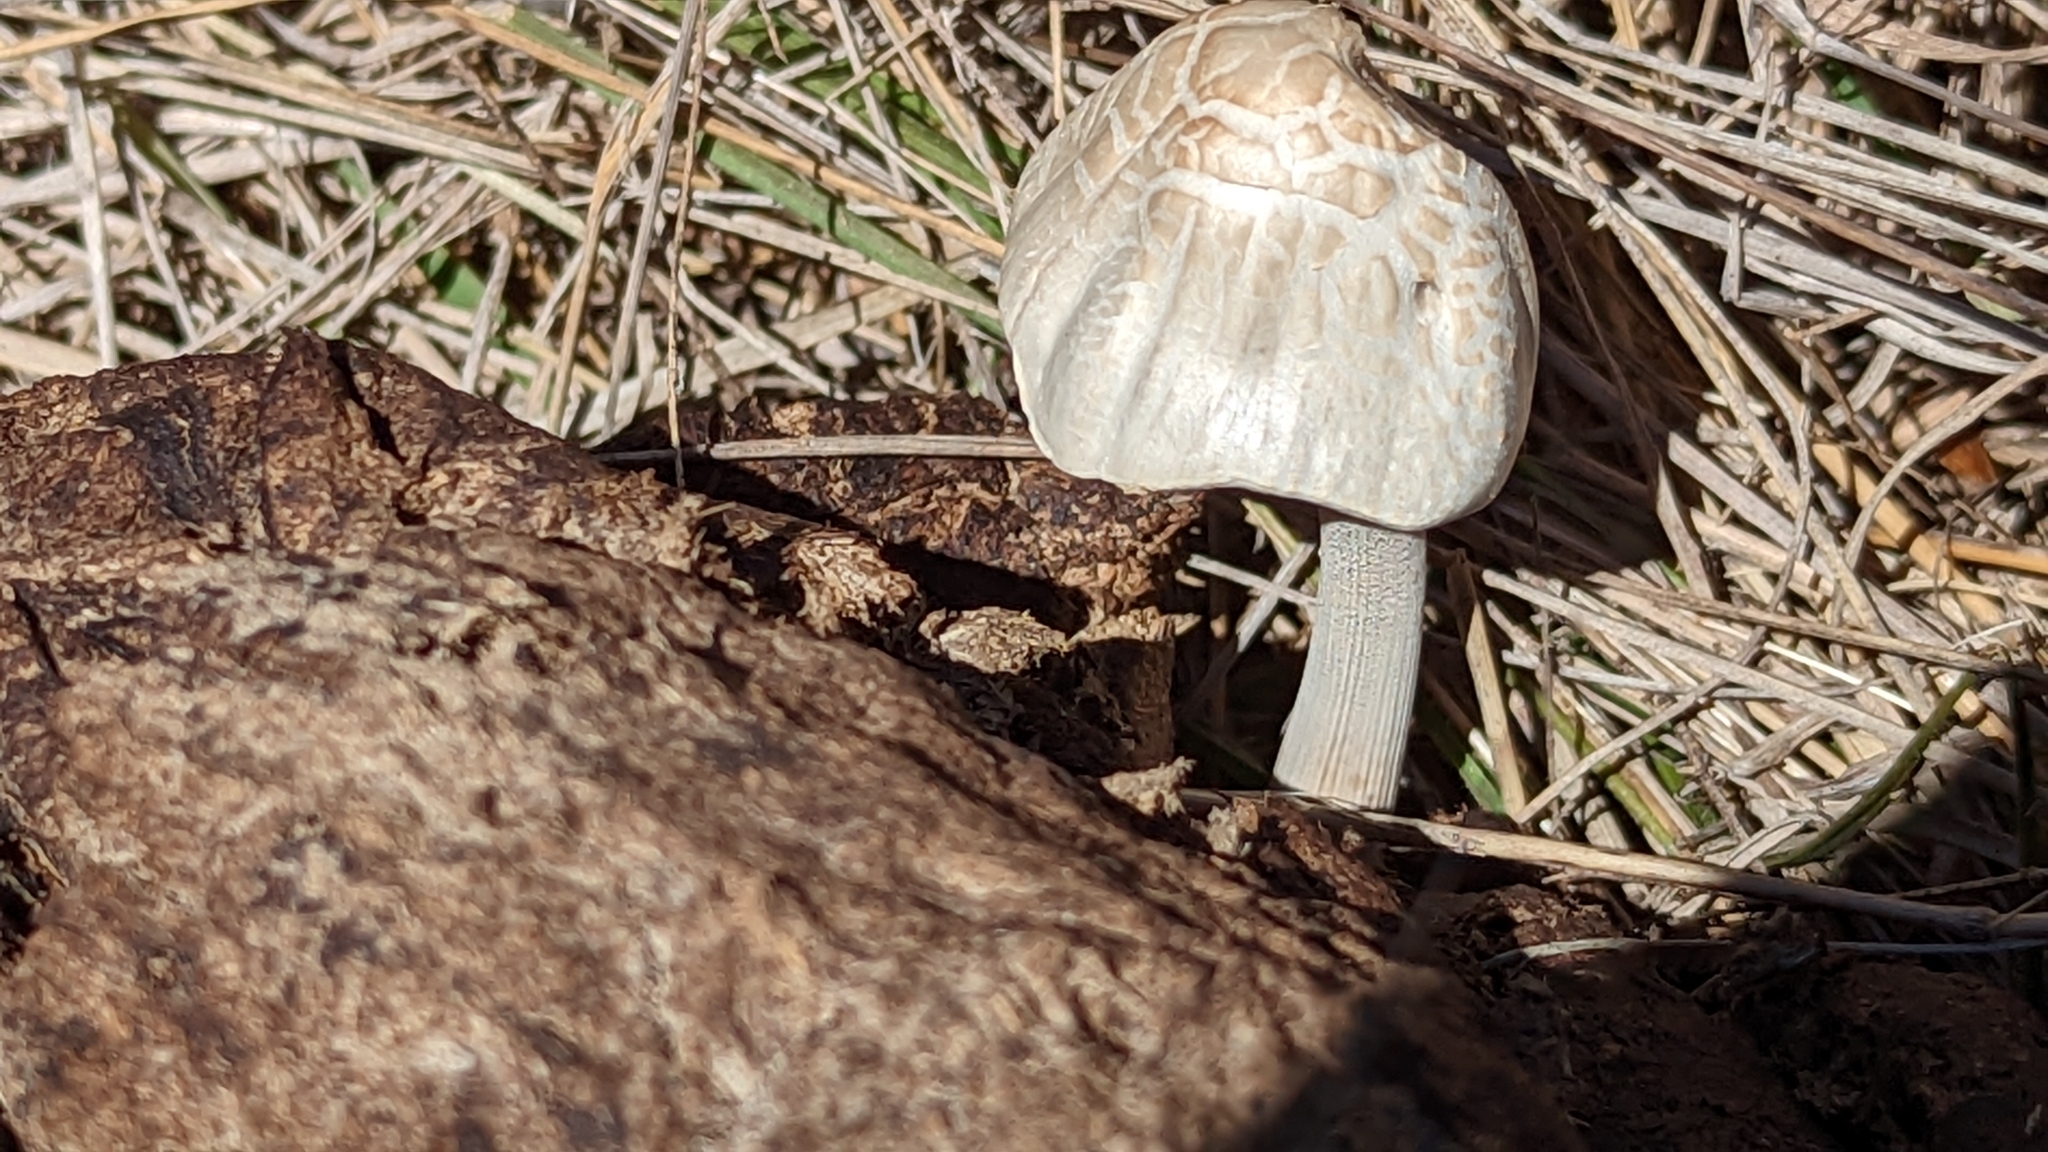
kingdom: Fungi
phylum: Basidiomycota
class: Agaricomycetes
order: Agaricales
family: Bolbitiaceae
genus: Panaeolus
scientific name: Panaeolus antillarum
